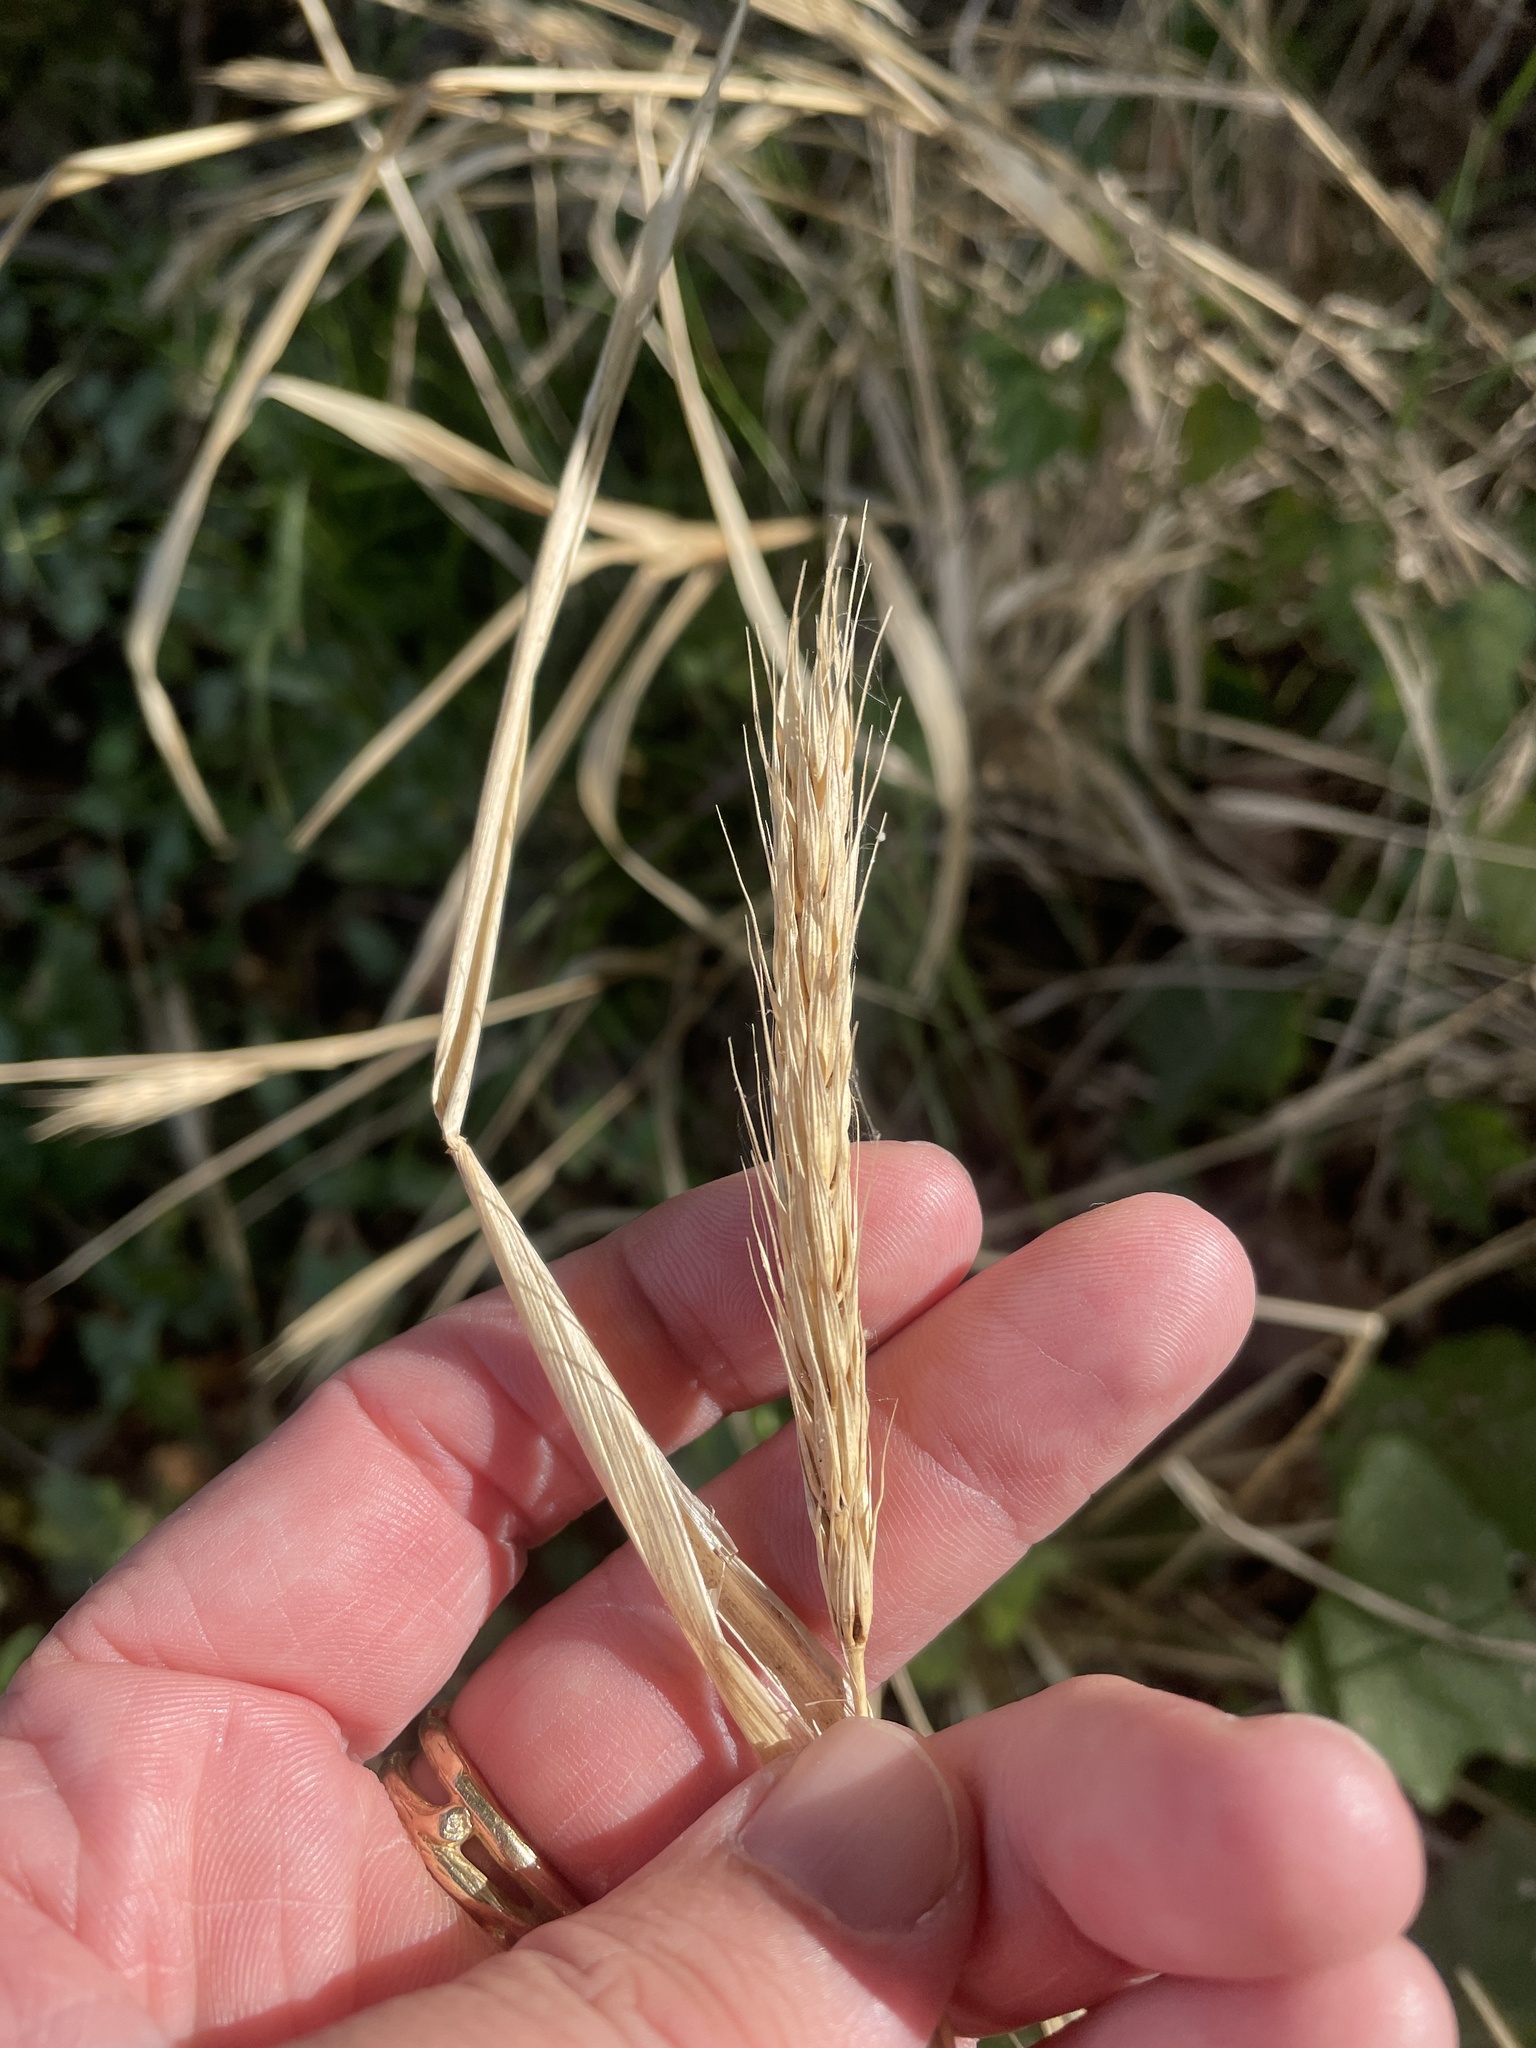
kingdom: Plantae
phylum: Tracheophyta
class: Liliopsida
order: Poales
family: Poaceae
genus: Elymus
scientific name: Elymus virginicus
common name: Common eastern wildrye
